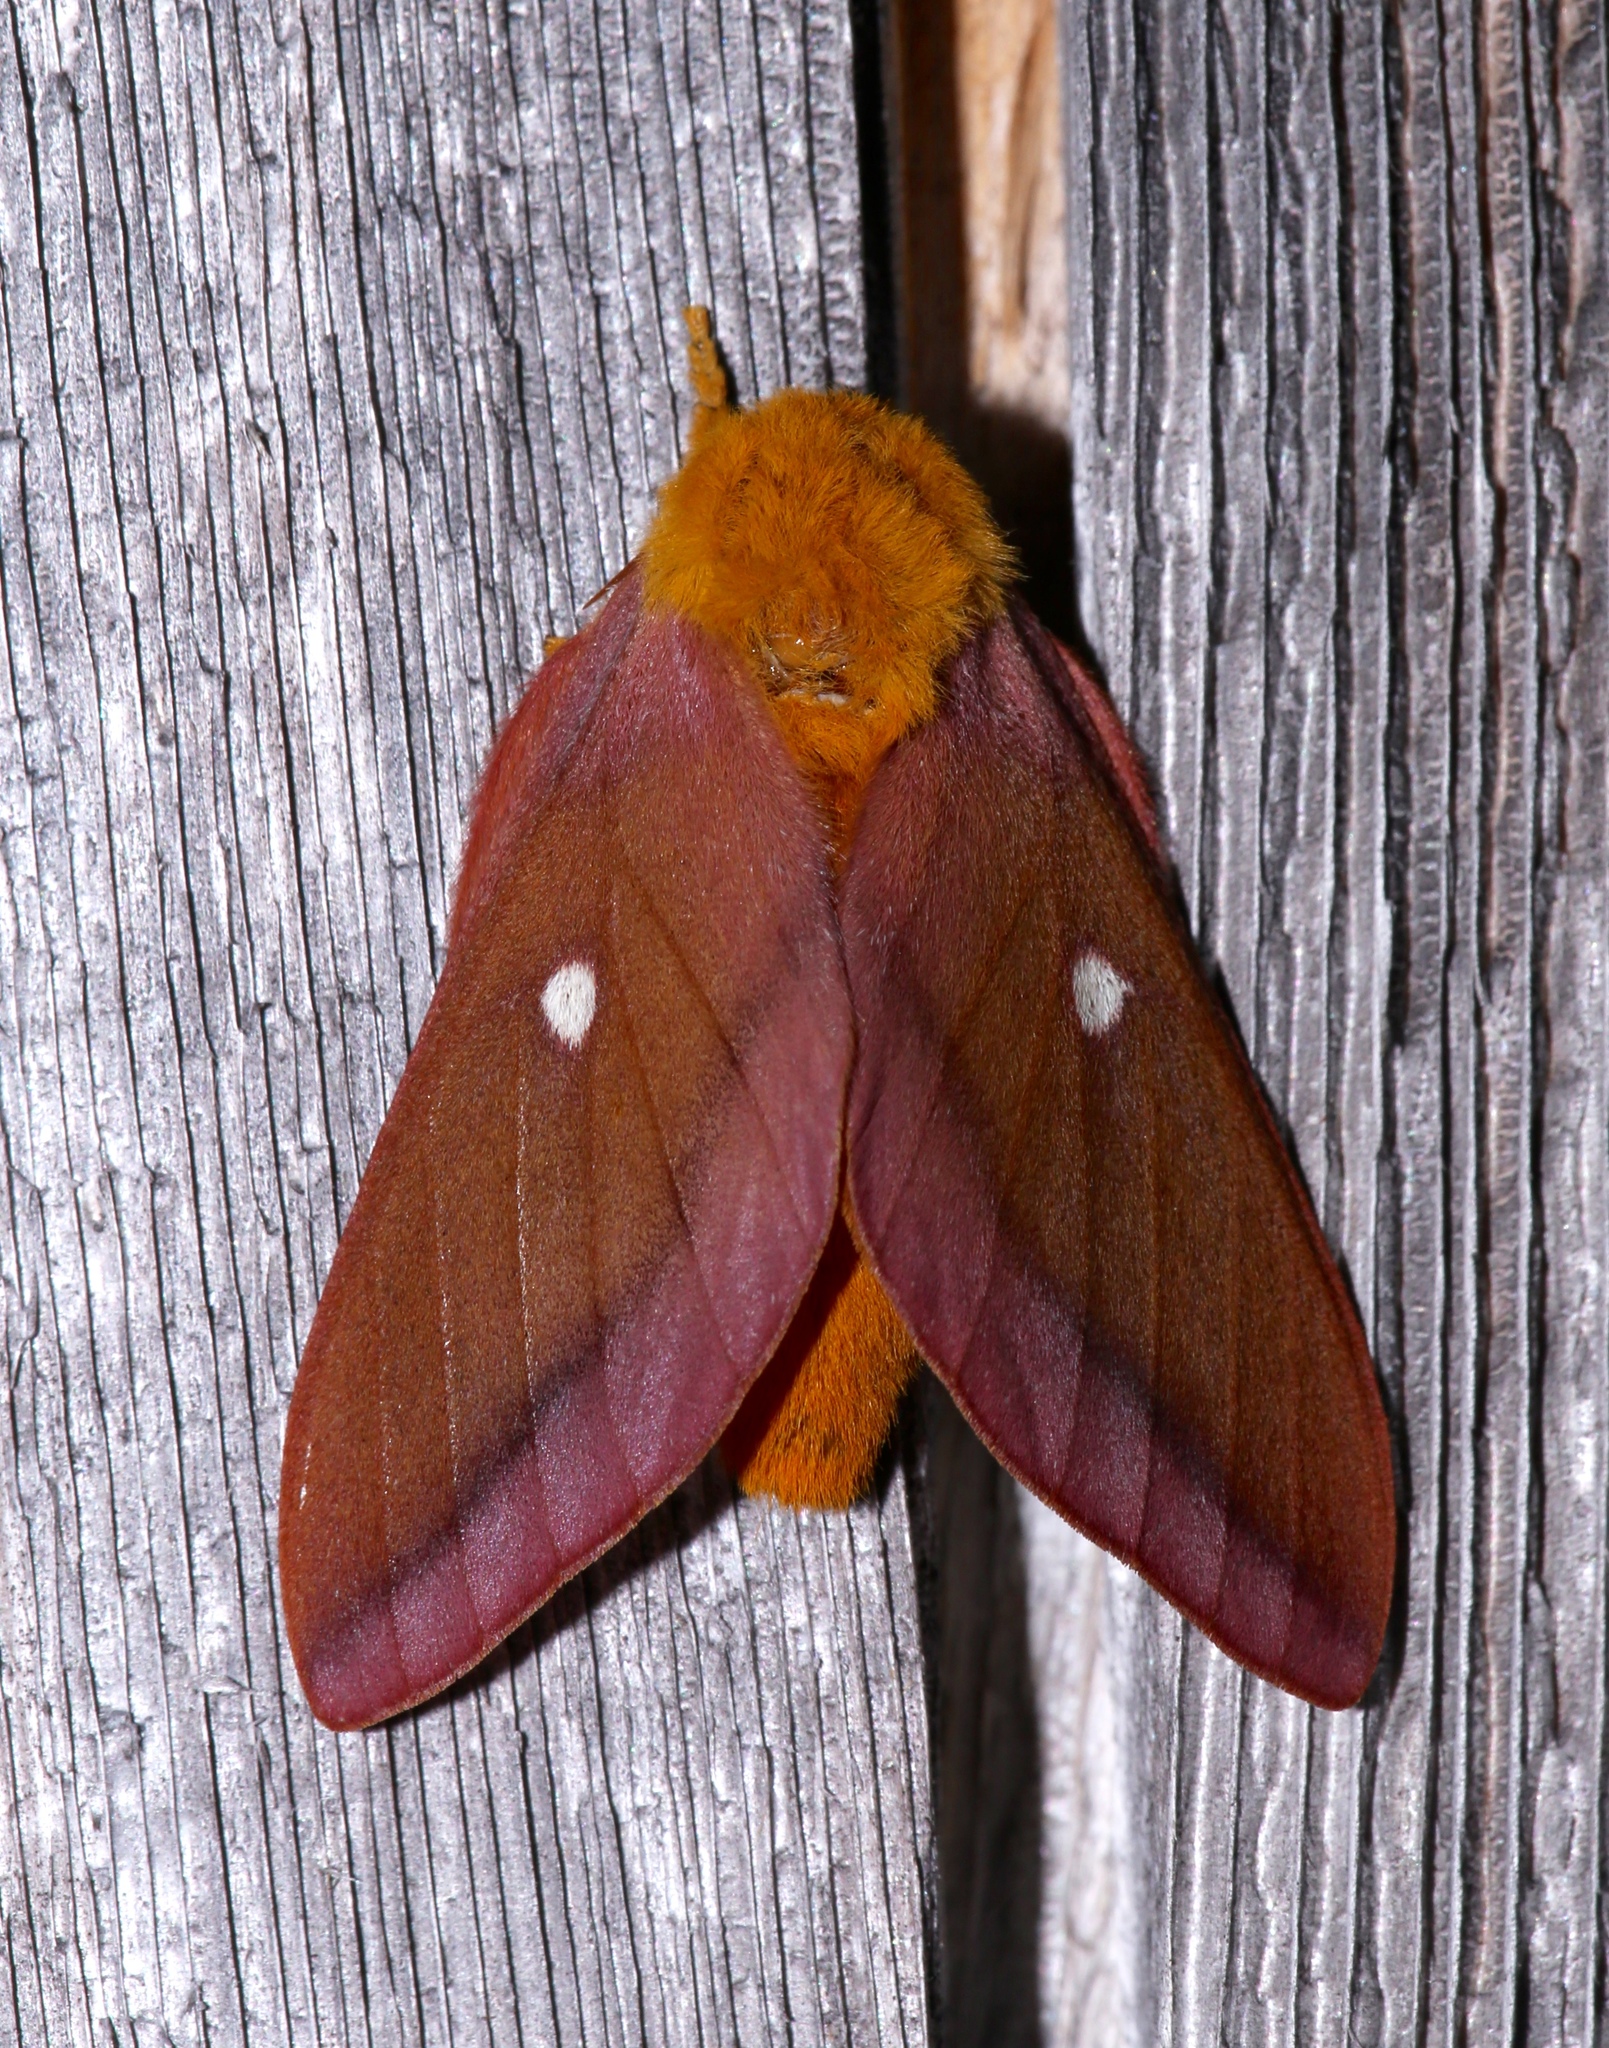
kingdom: Animalia
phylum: Arthropoda
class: Insecta
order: Lepidoptera
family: Saturniidae
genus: Anisota
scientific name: Anisota virginiensis
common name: Pink striped oakworm moth
